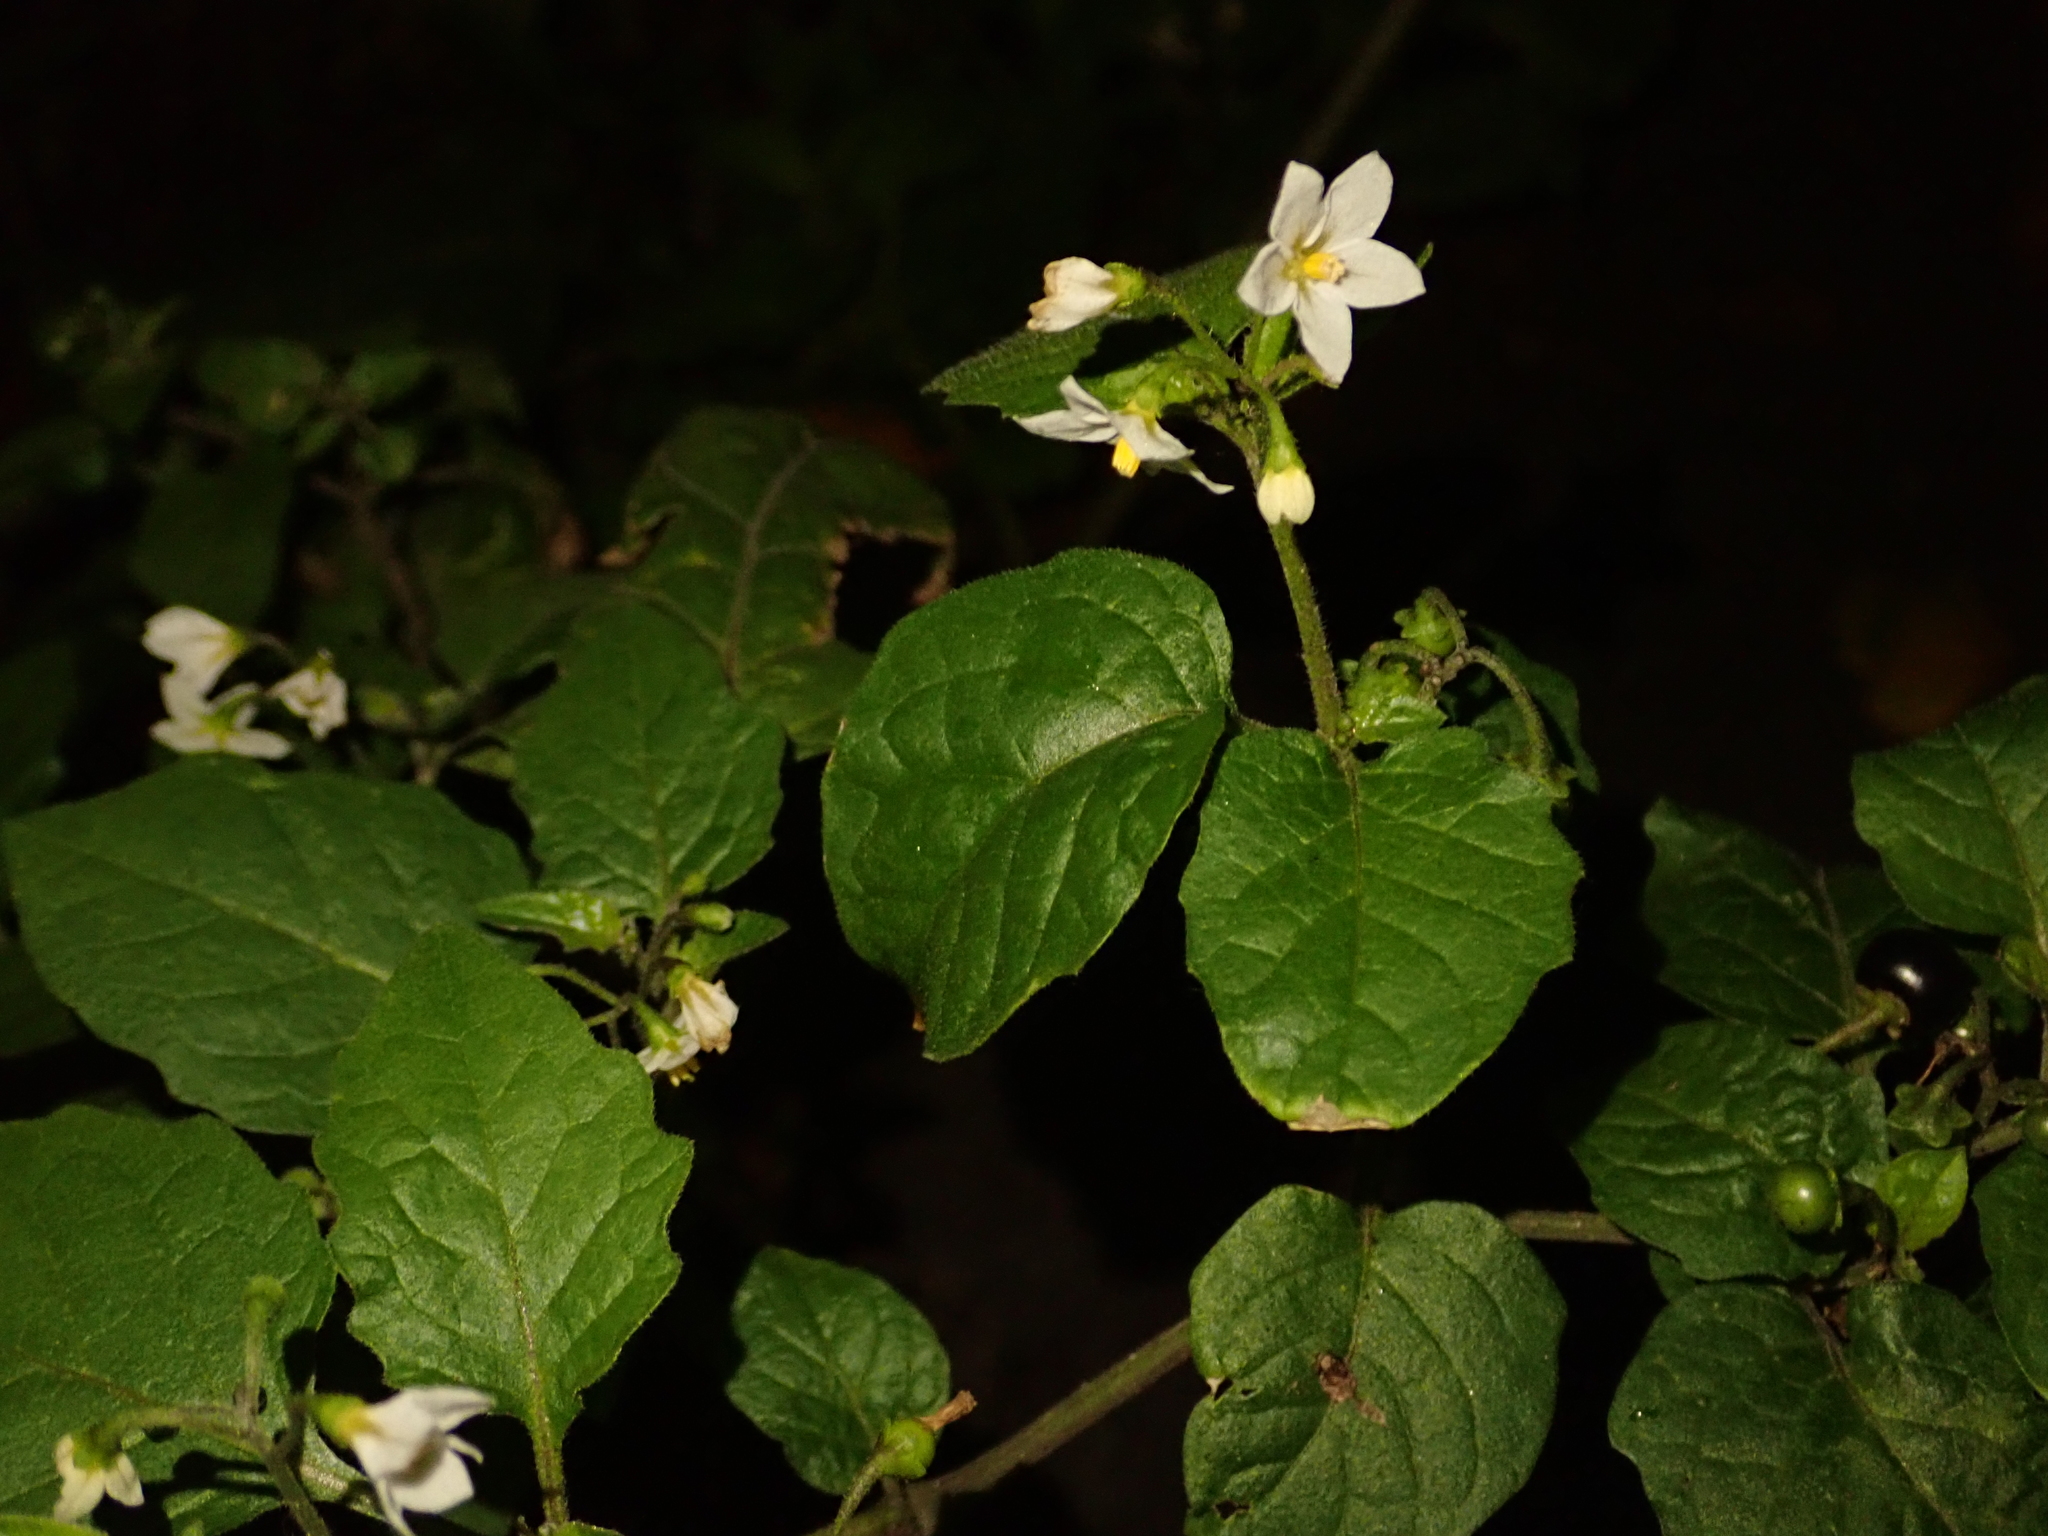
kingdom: Plantae
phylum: Tracheophyta
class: Magnoliopsida
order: Solanales
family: Solanaceae
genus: Solanum
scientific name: Solanum nigrum
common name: Black nightshade
